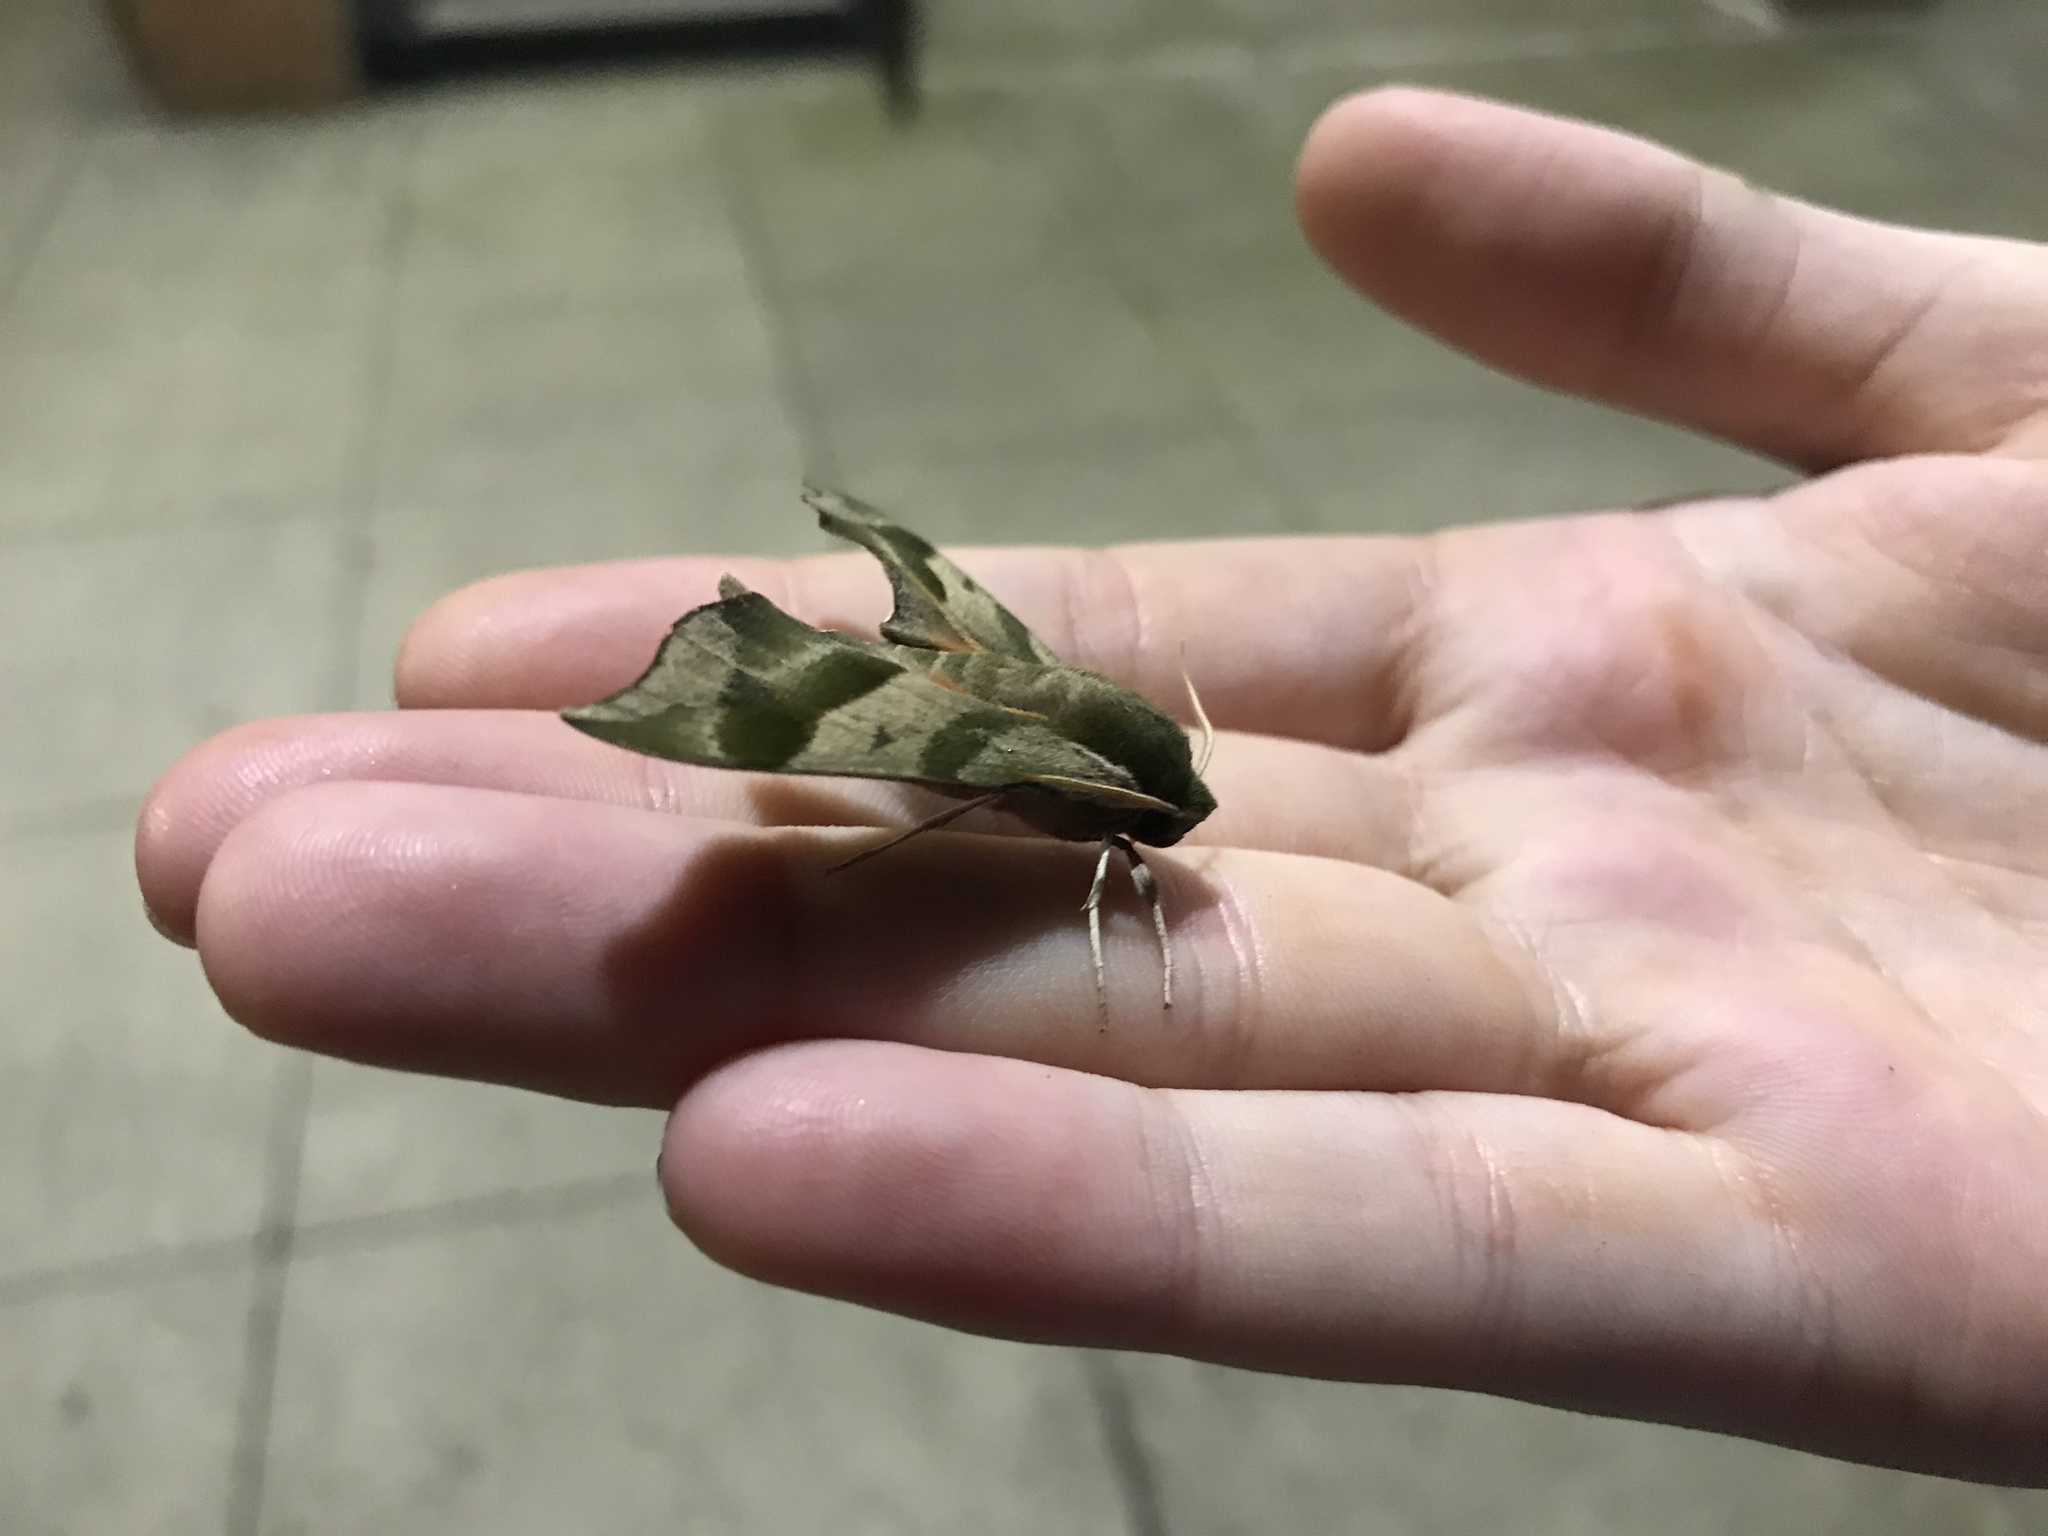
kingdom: Animalia
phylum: Arthropoda
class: Insecta
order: Lepidoptera
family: Sphingidae
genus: Darapsa
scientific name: Darapsa myron
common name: Hog sphinx
